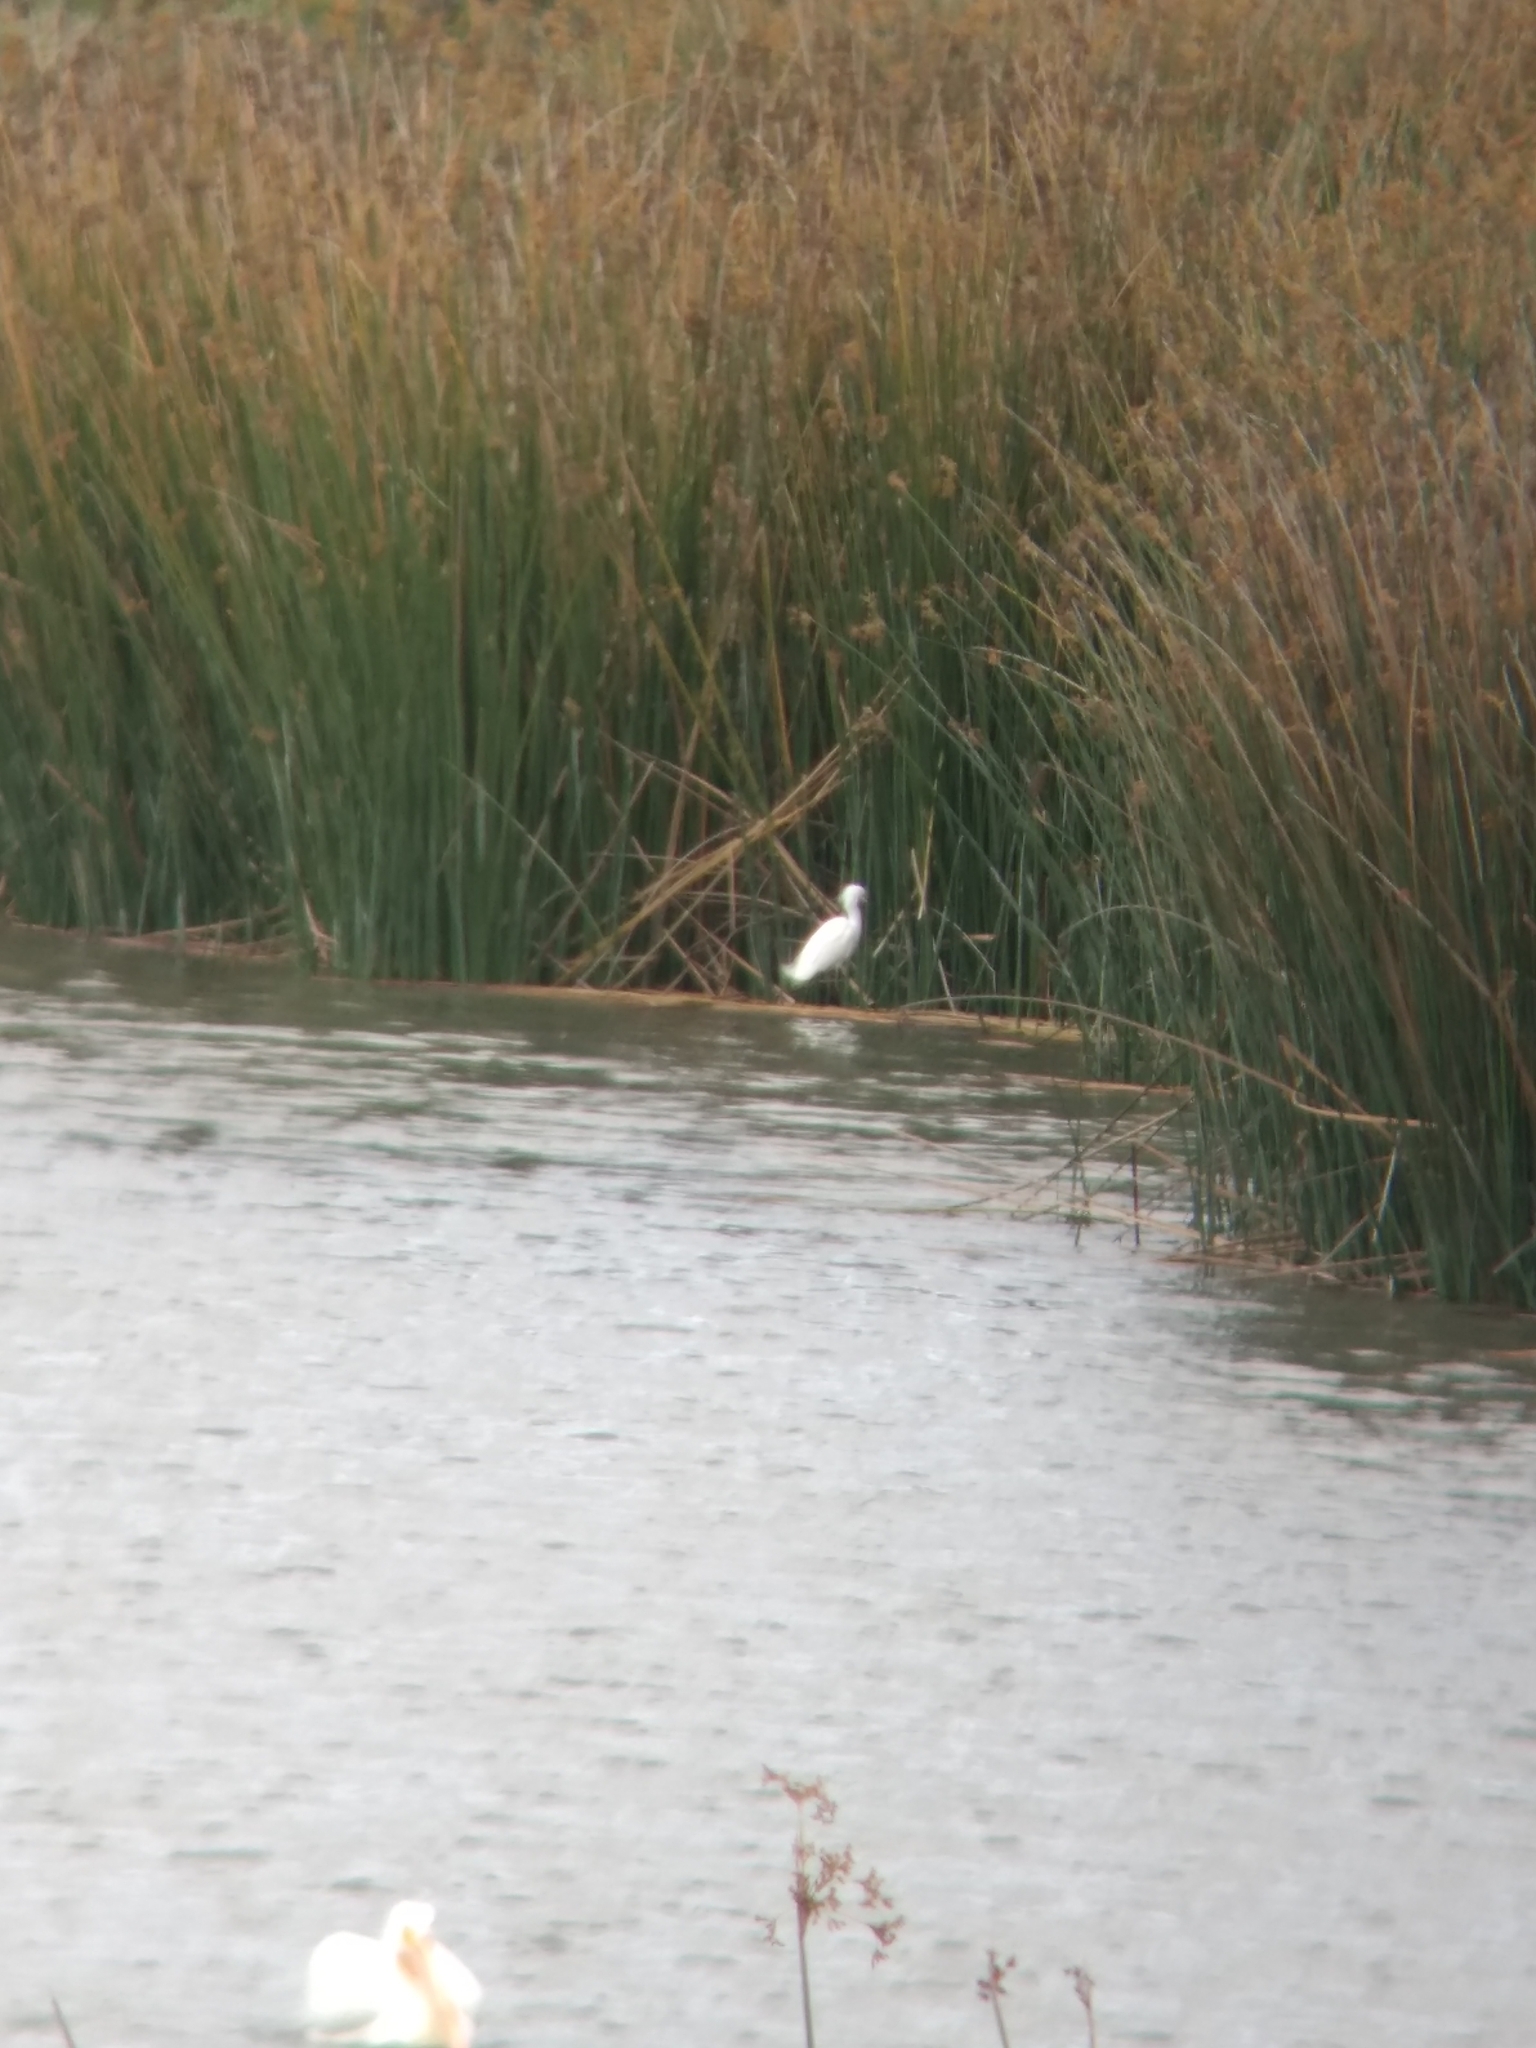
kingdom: Animalia
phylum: Chordata
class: Aves
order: Pelecaniformes
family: Ardeidae
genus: Egretta
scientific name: Egretta thula
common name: Snowy egret
